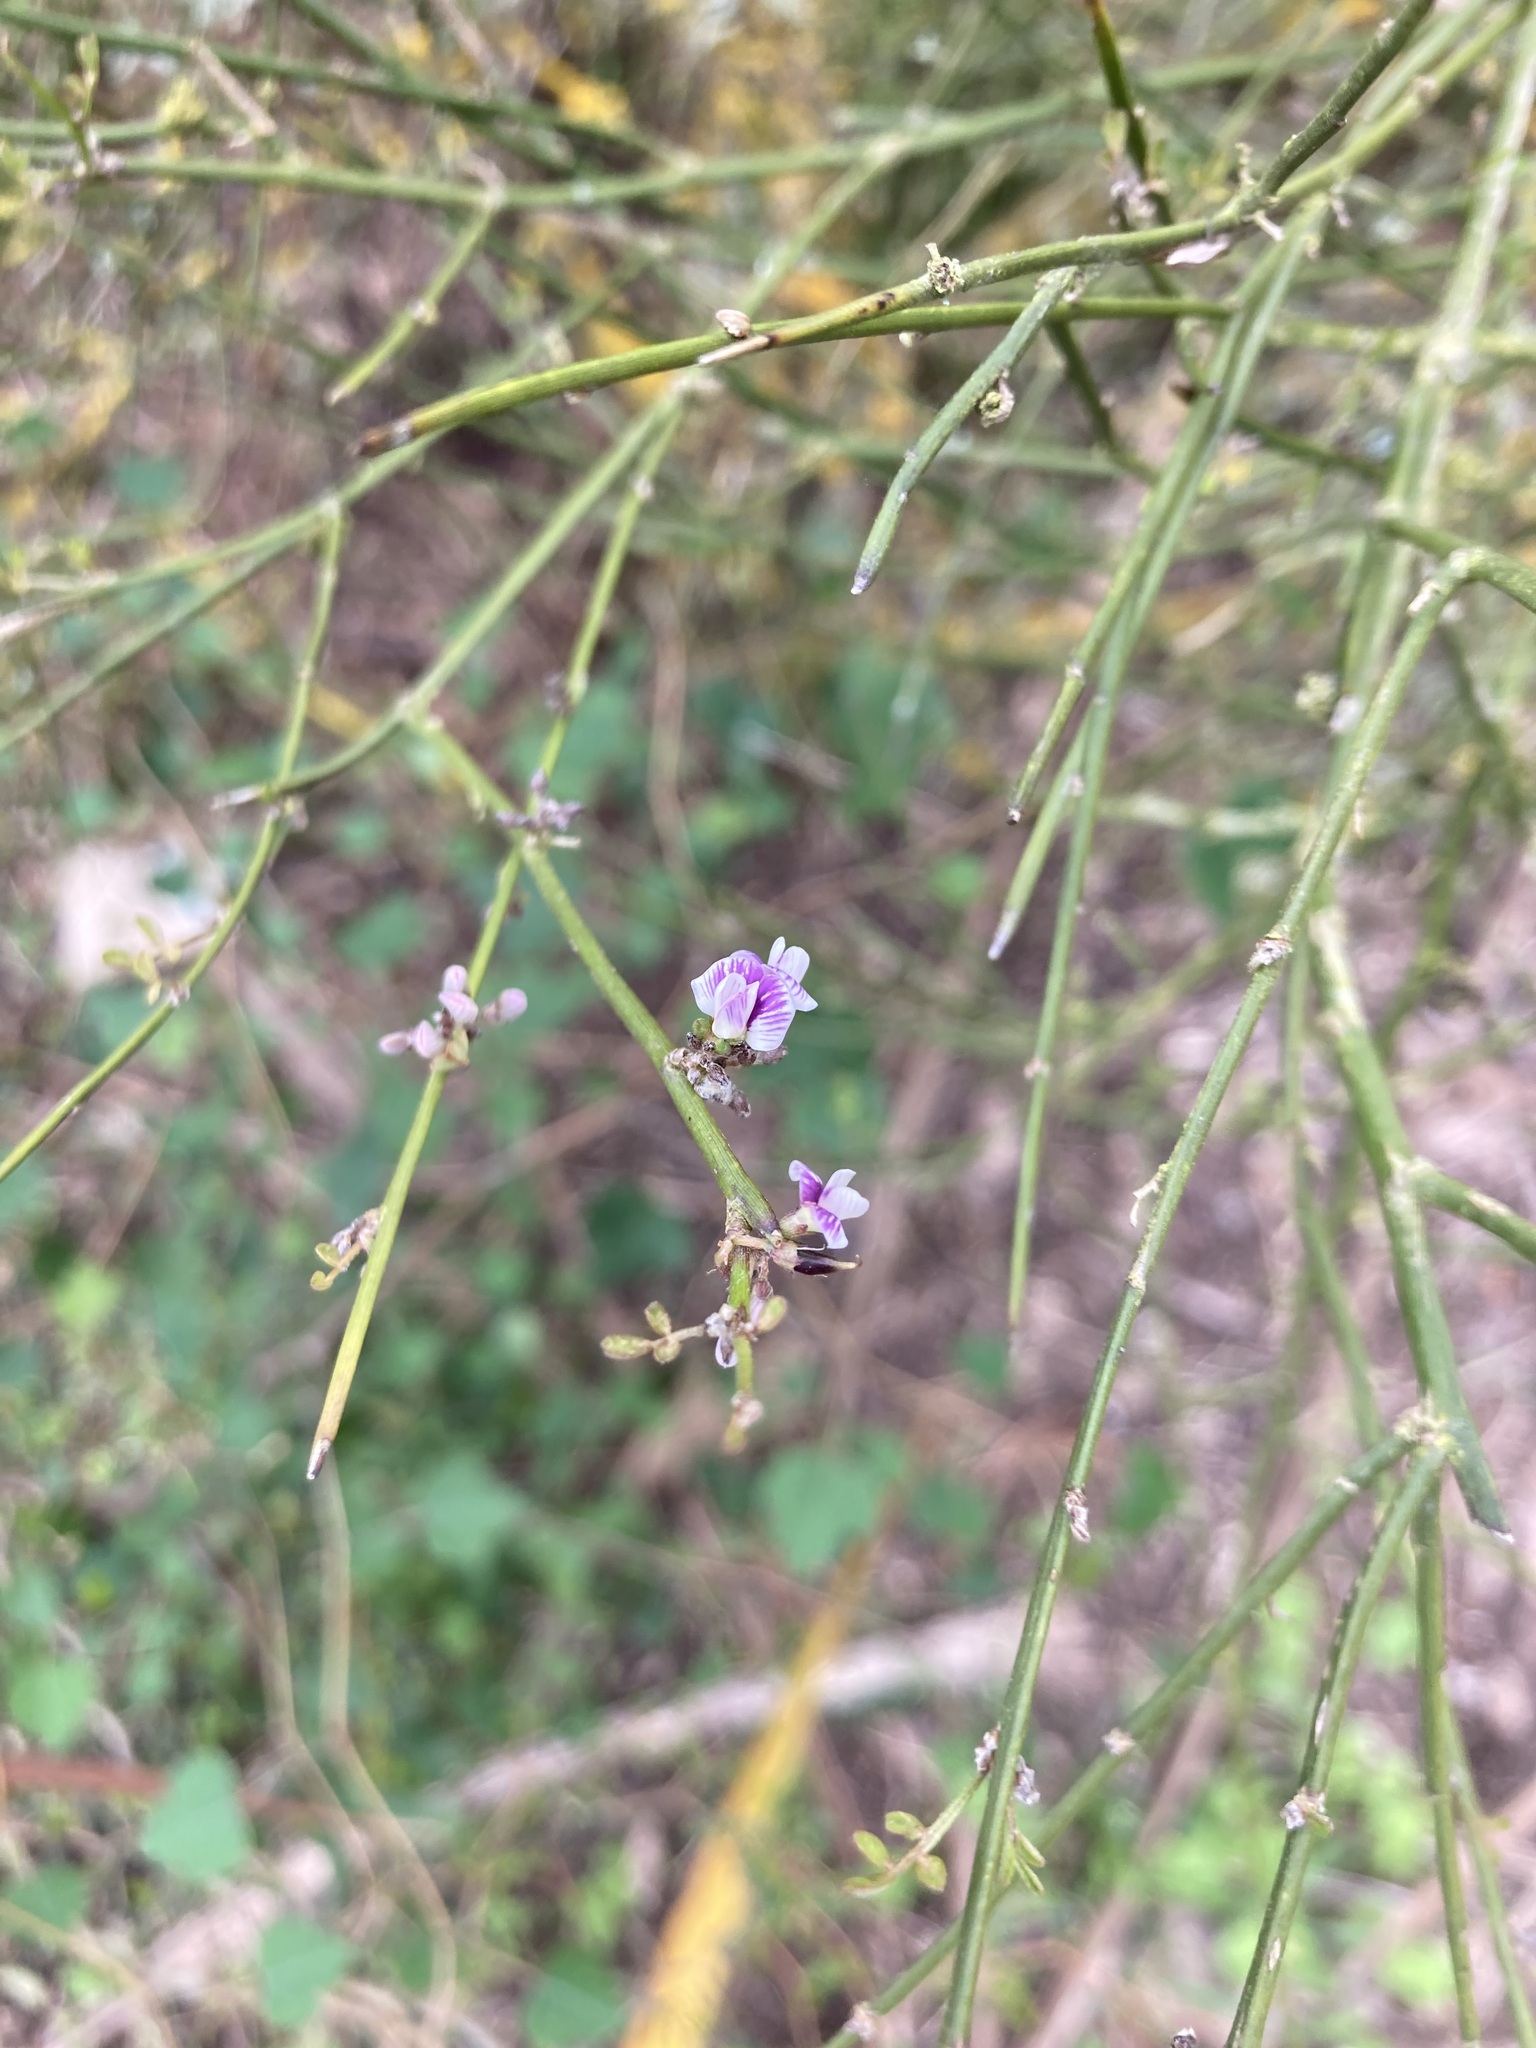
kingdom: Plantae
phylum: Tracheophyta
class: Magnoliopsida
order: Fabales
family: Fabaceae
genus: Carmichaelia
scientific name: Carmichaelia australis
